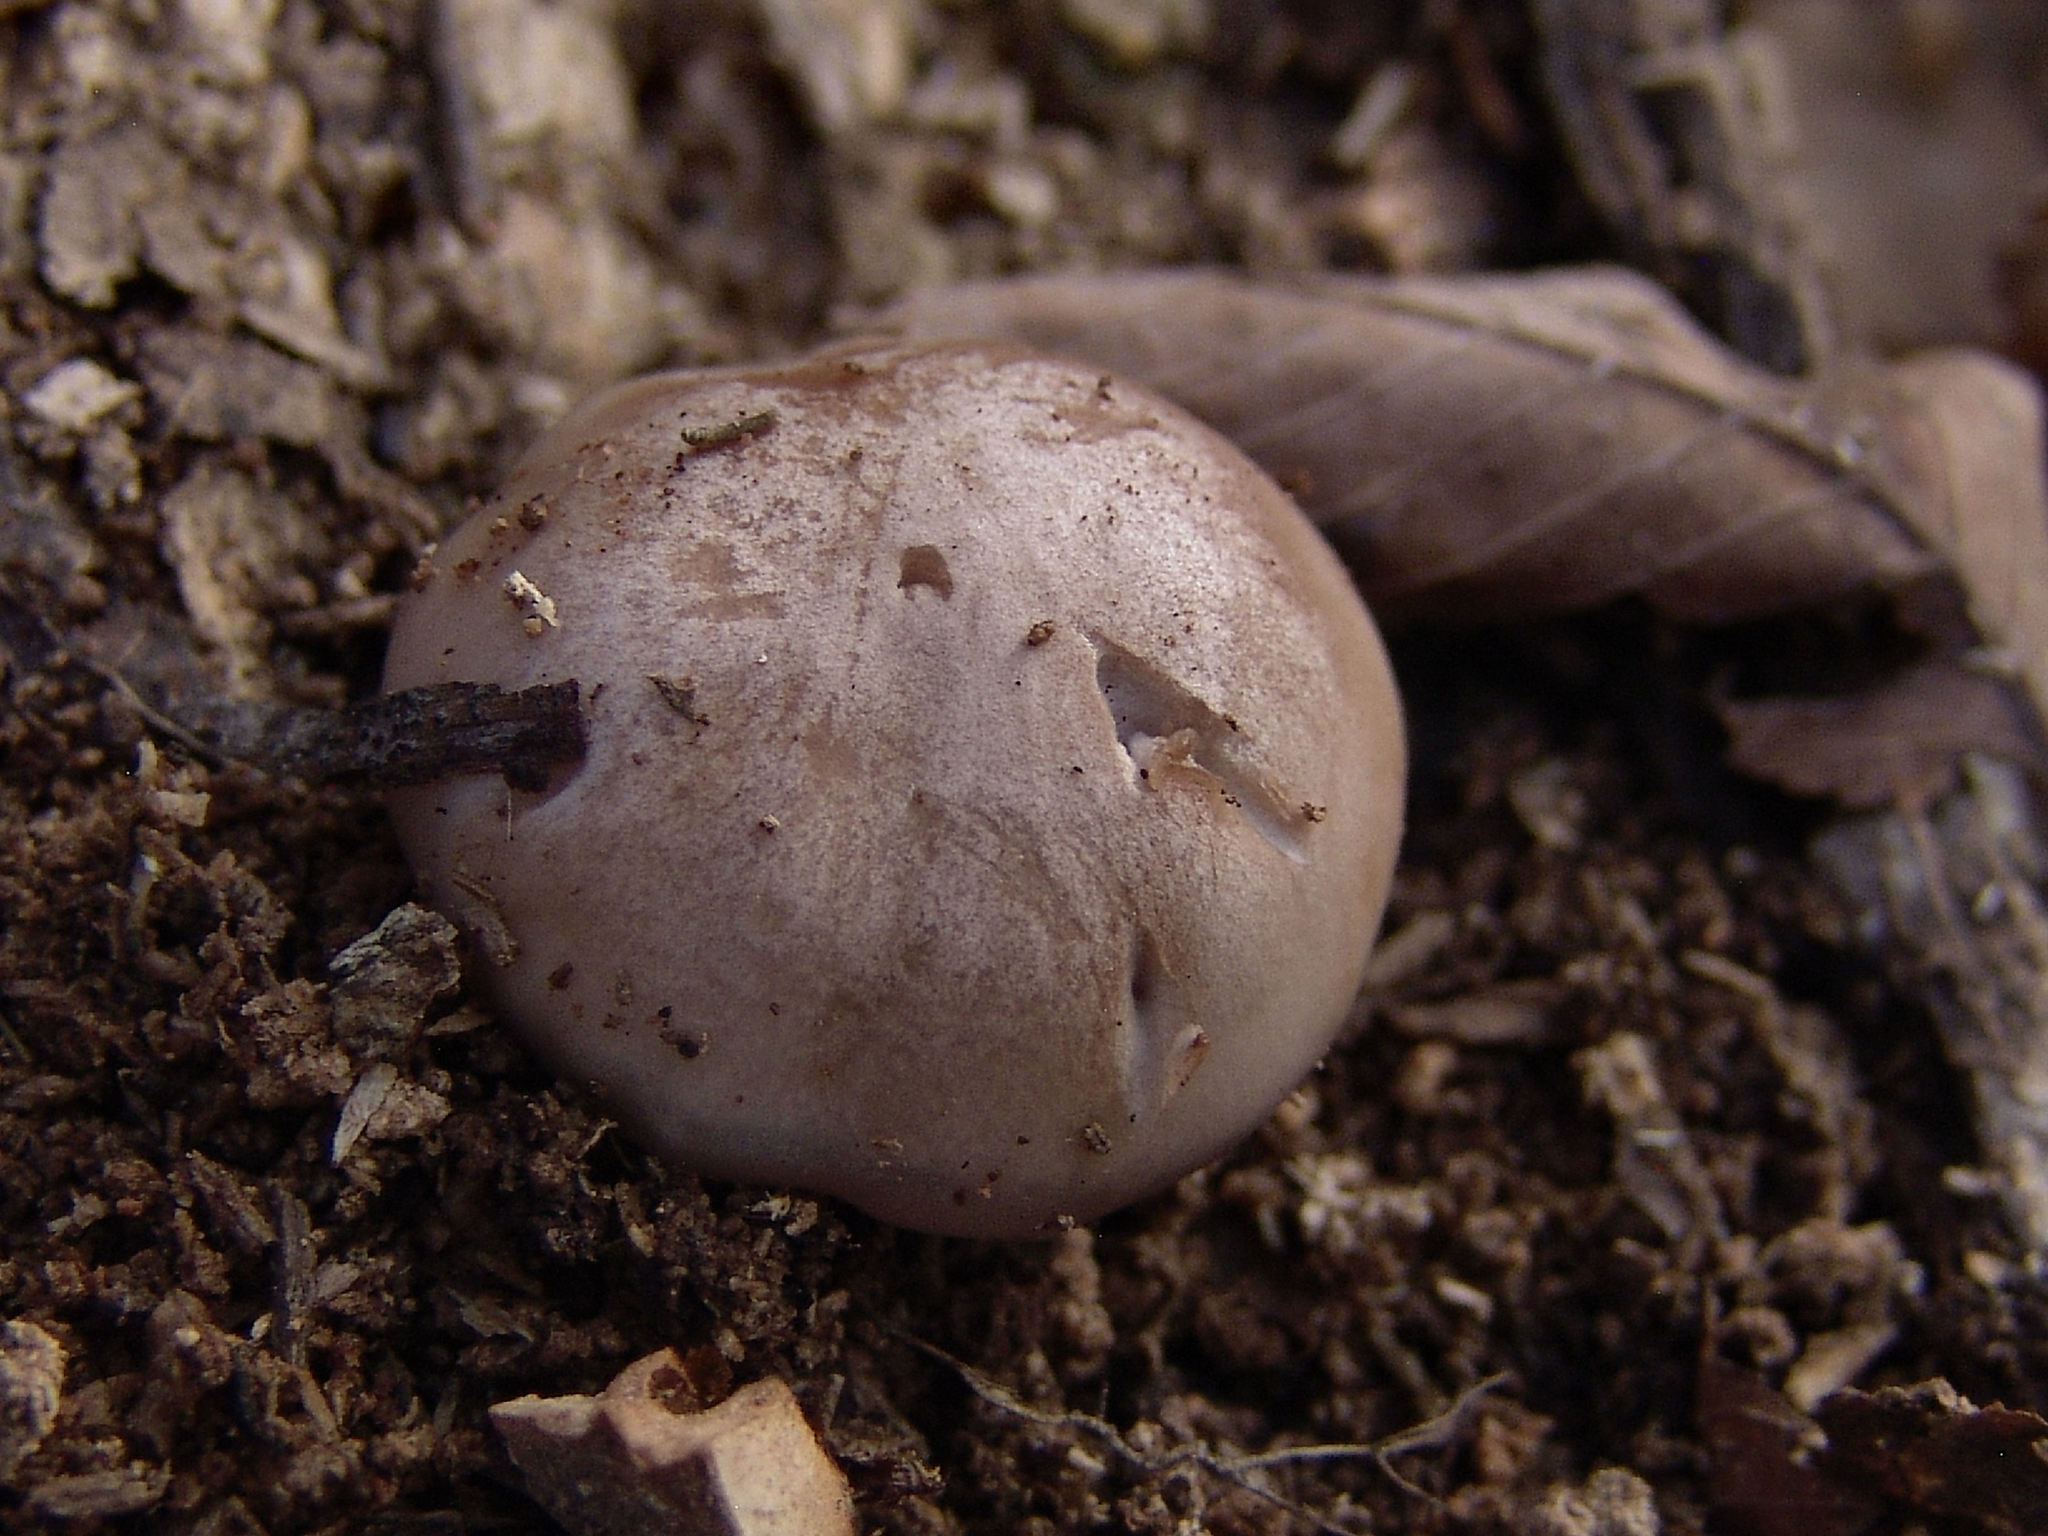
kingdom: Fungi
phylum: Basidiomycota
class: Agaricomycetes
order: Agaricales
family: Tricholomataceae
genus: Collybia
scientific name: Collybia
